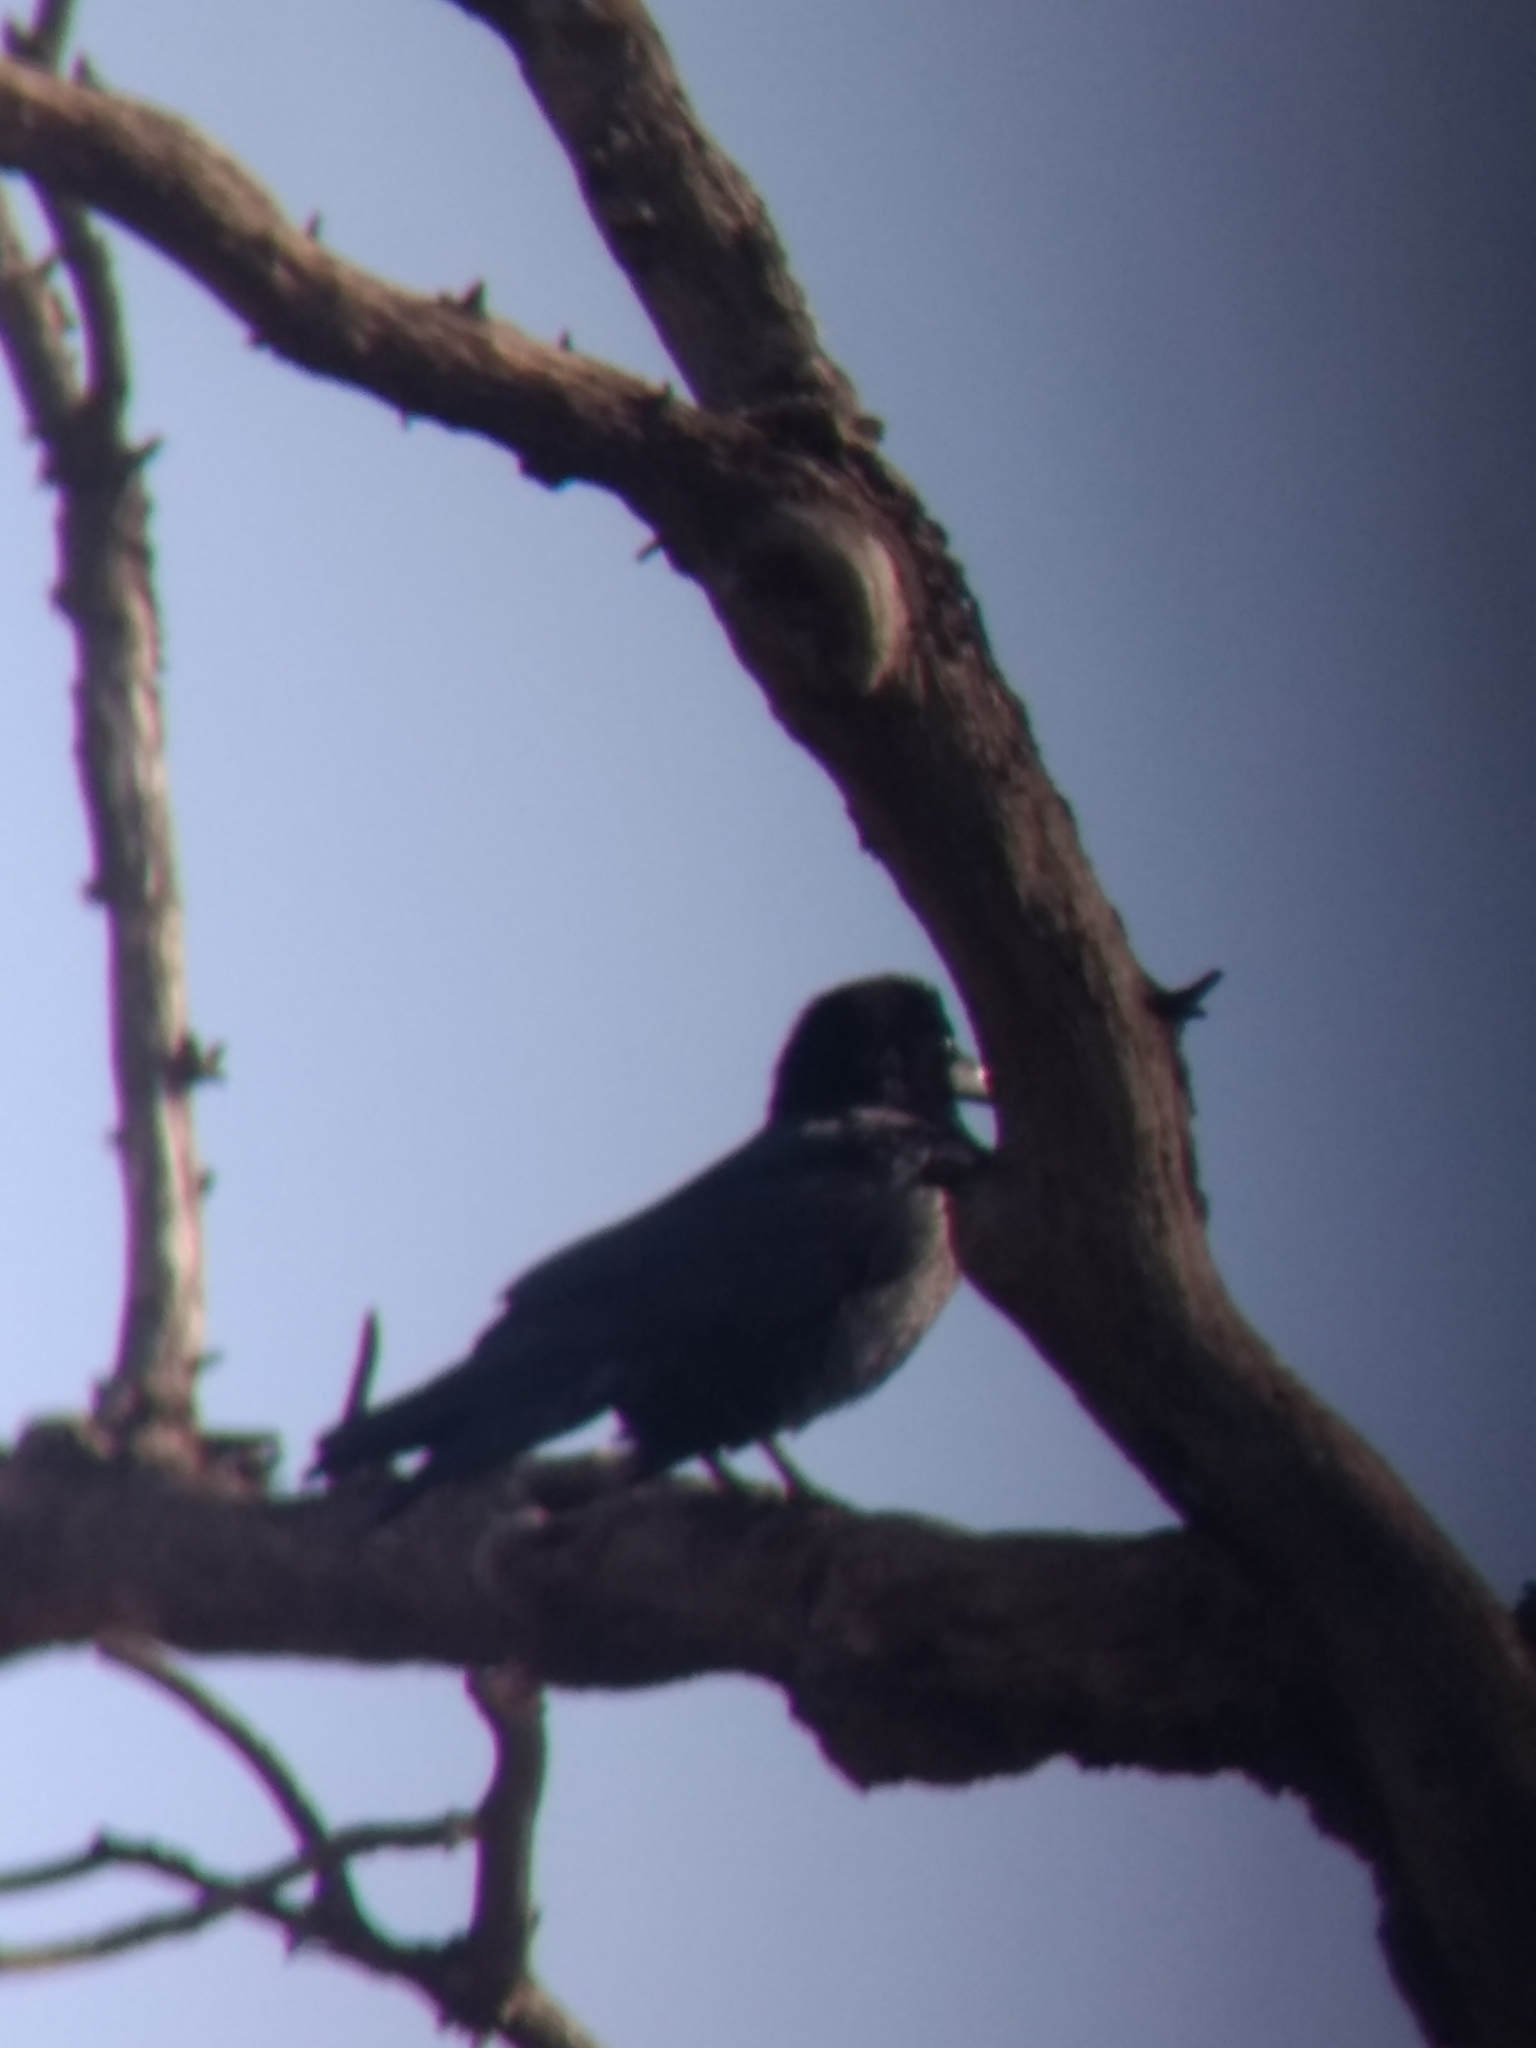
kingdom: Animalia
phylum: Chordata
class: Aves
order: Passeriformes
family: Corvidae
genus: Corvus
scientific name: Corvus corax
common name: Common raven
